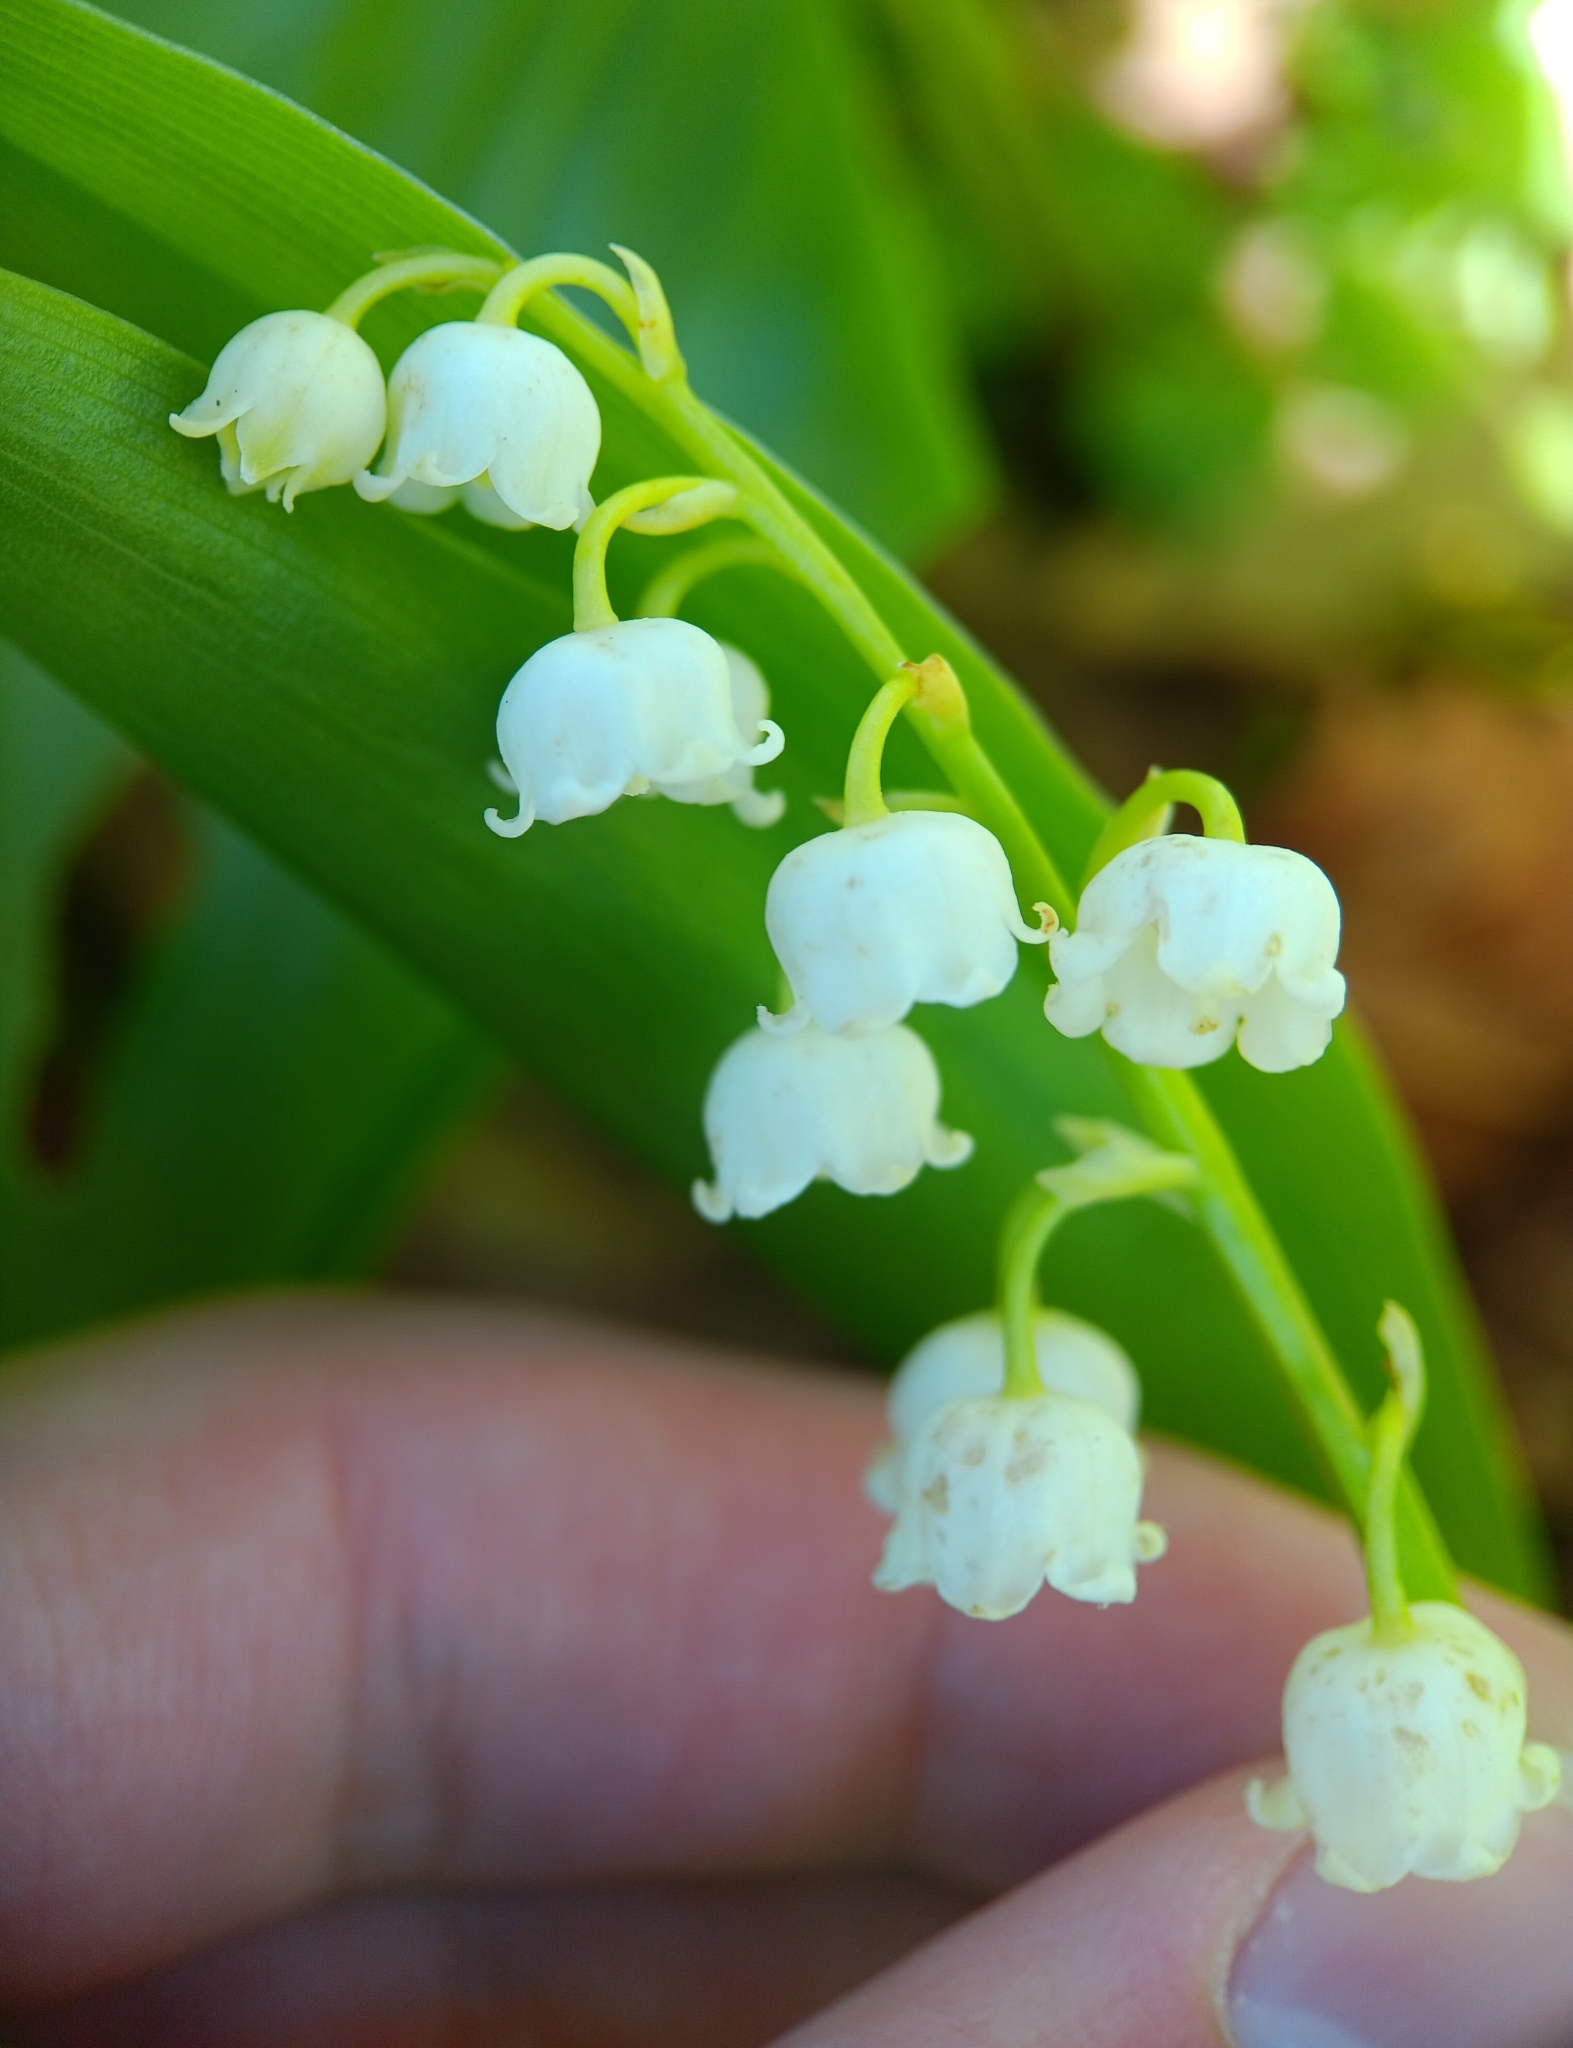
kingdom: Plantae
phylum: Tracheophyta
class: Liliopsida
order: Asparagales
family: Asparagaceae
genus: Convallaria
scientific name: Convallaria majalis
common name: Lily-of-the-valley
